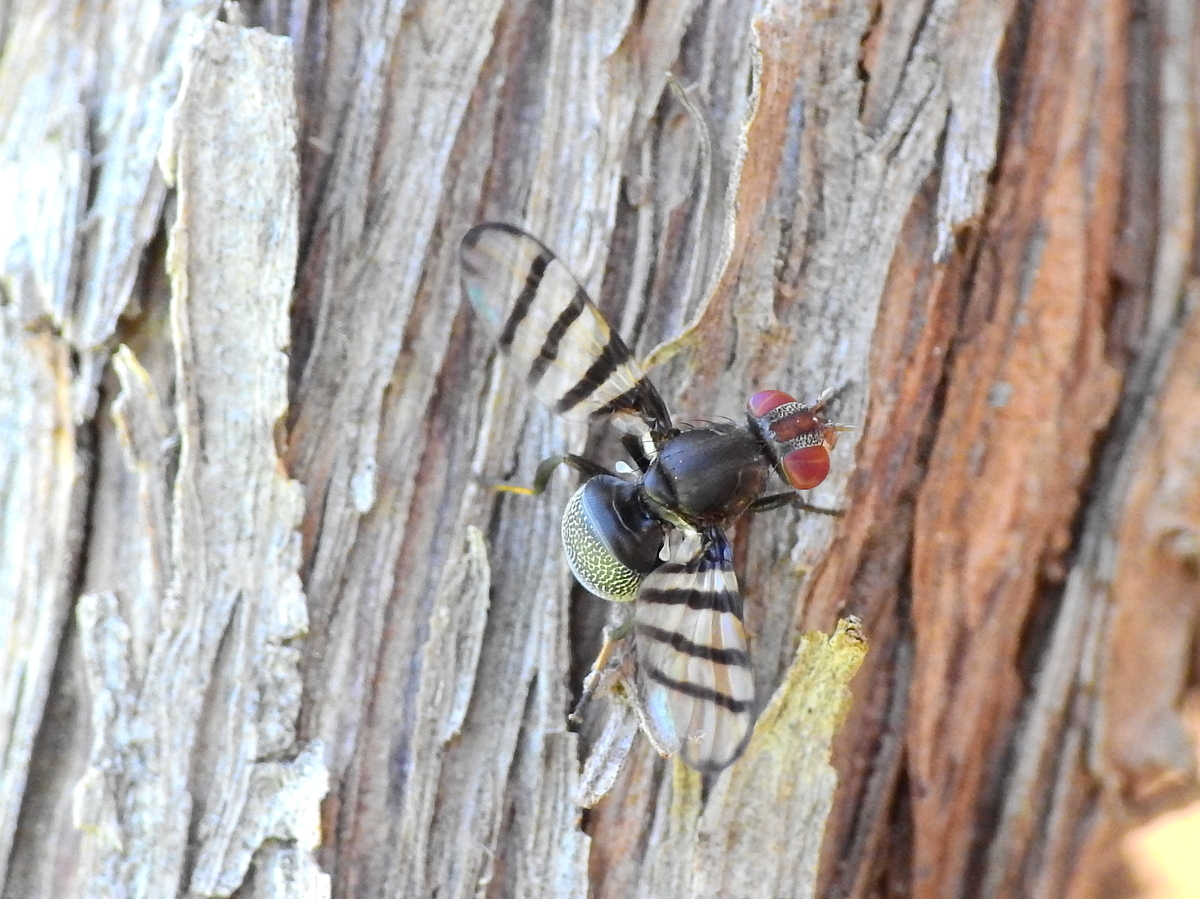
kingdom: Animalia
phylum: Arthropoda
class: Insecta
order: Diptera
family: Ulidiidae
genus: Pterotaenia
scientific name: Pterotaenia rivelloides
